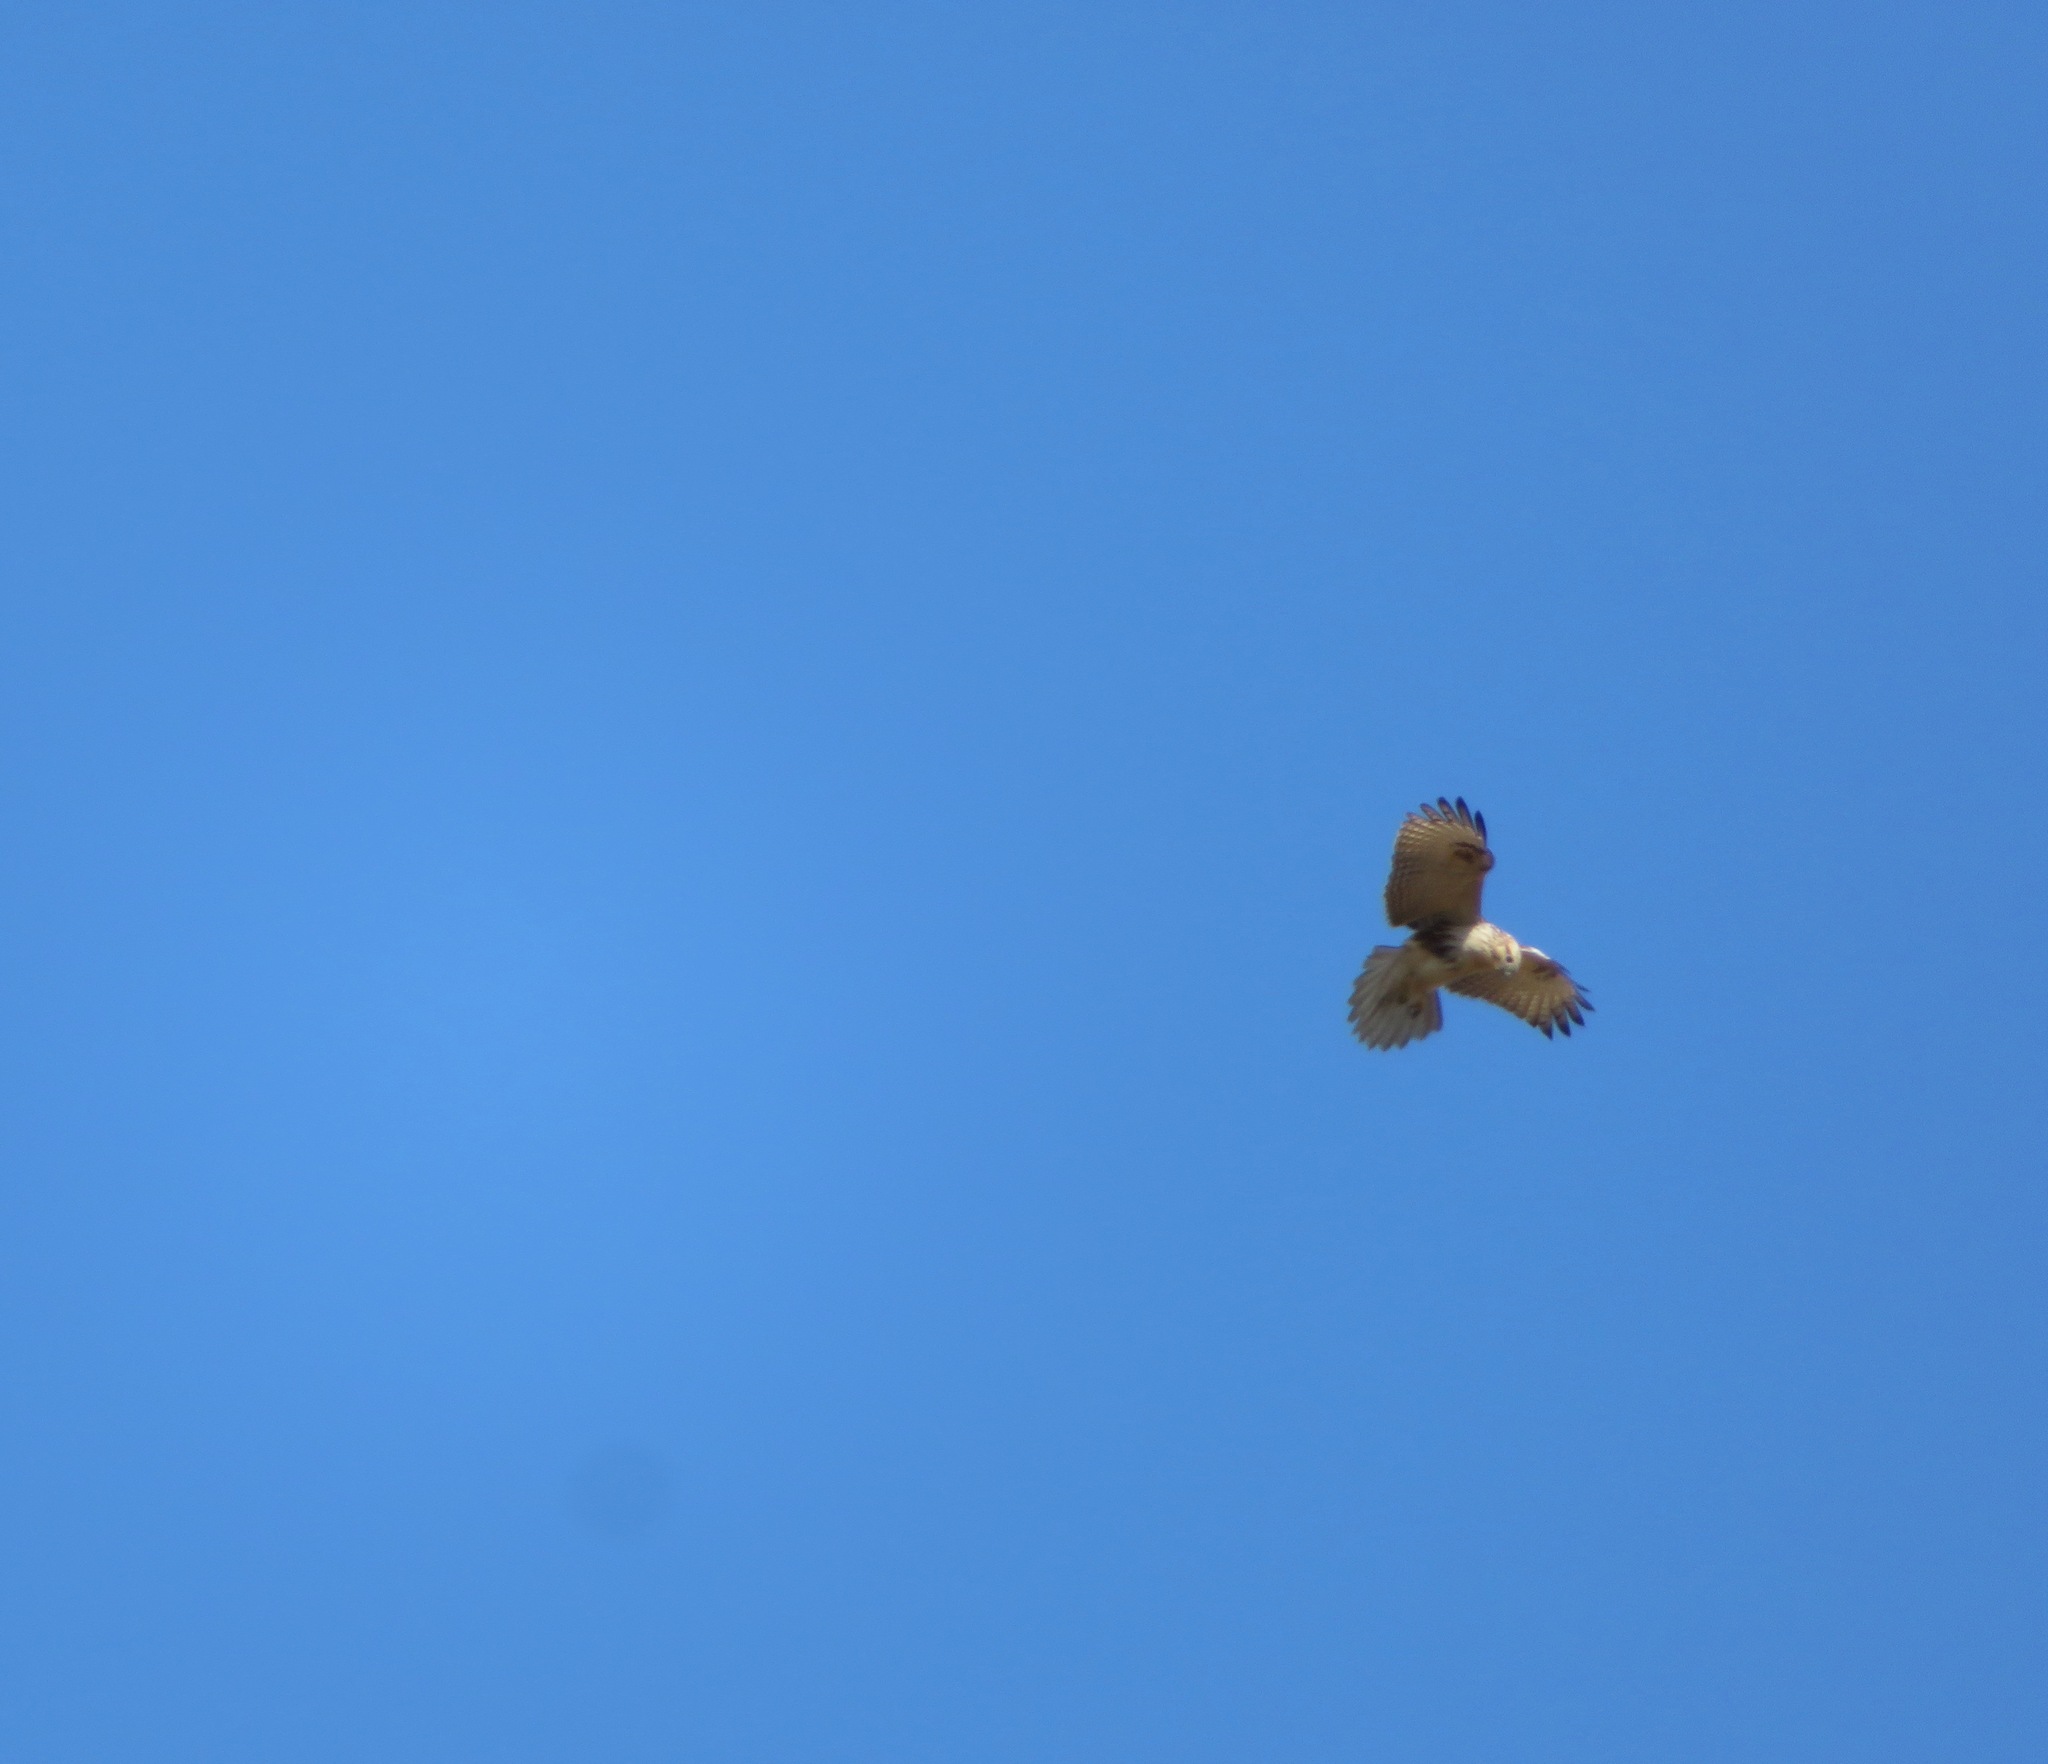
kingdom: Animalia
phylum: Chordata
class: Aves
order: Accipitriformes
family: Accipitridae
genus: Buteo
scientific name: Buteo japonicus
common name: Eastern buzzard
